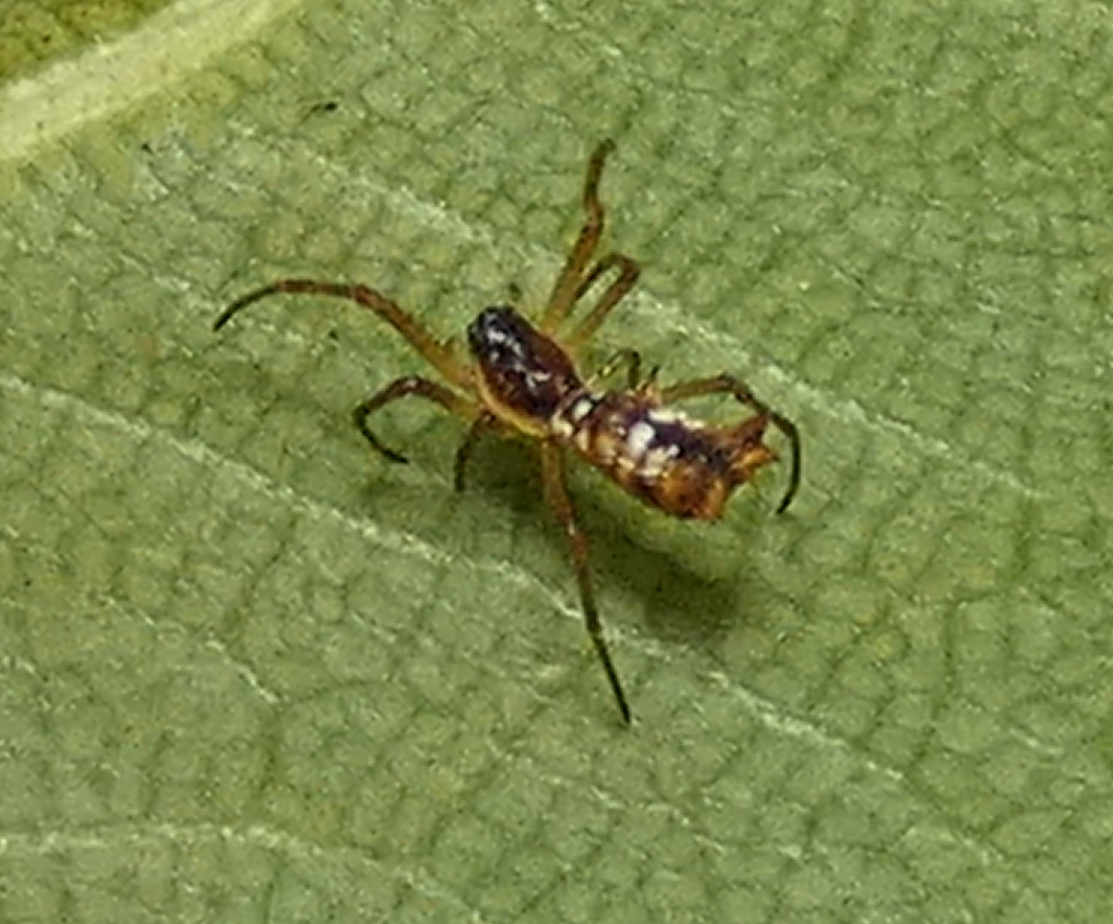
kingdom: Animalia
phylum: Arthropoda
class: Arachnida
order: Araneae
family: Araneidae
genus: Micrathena
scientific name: Micrathena fissispina
